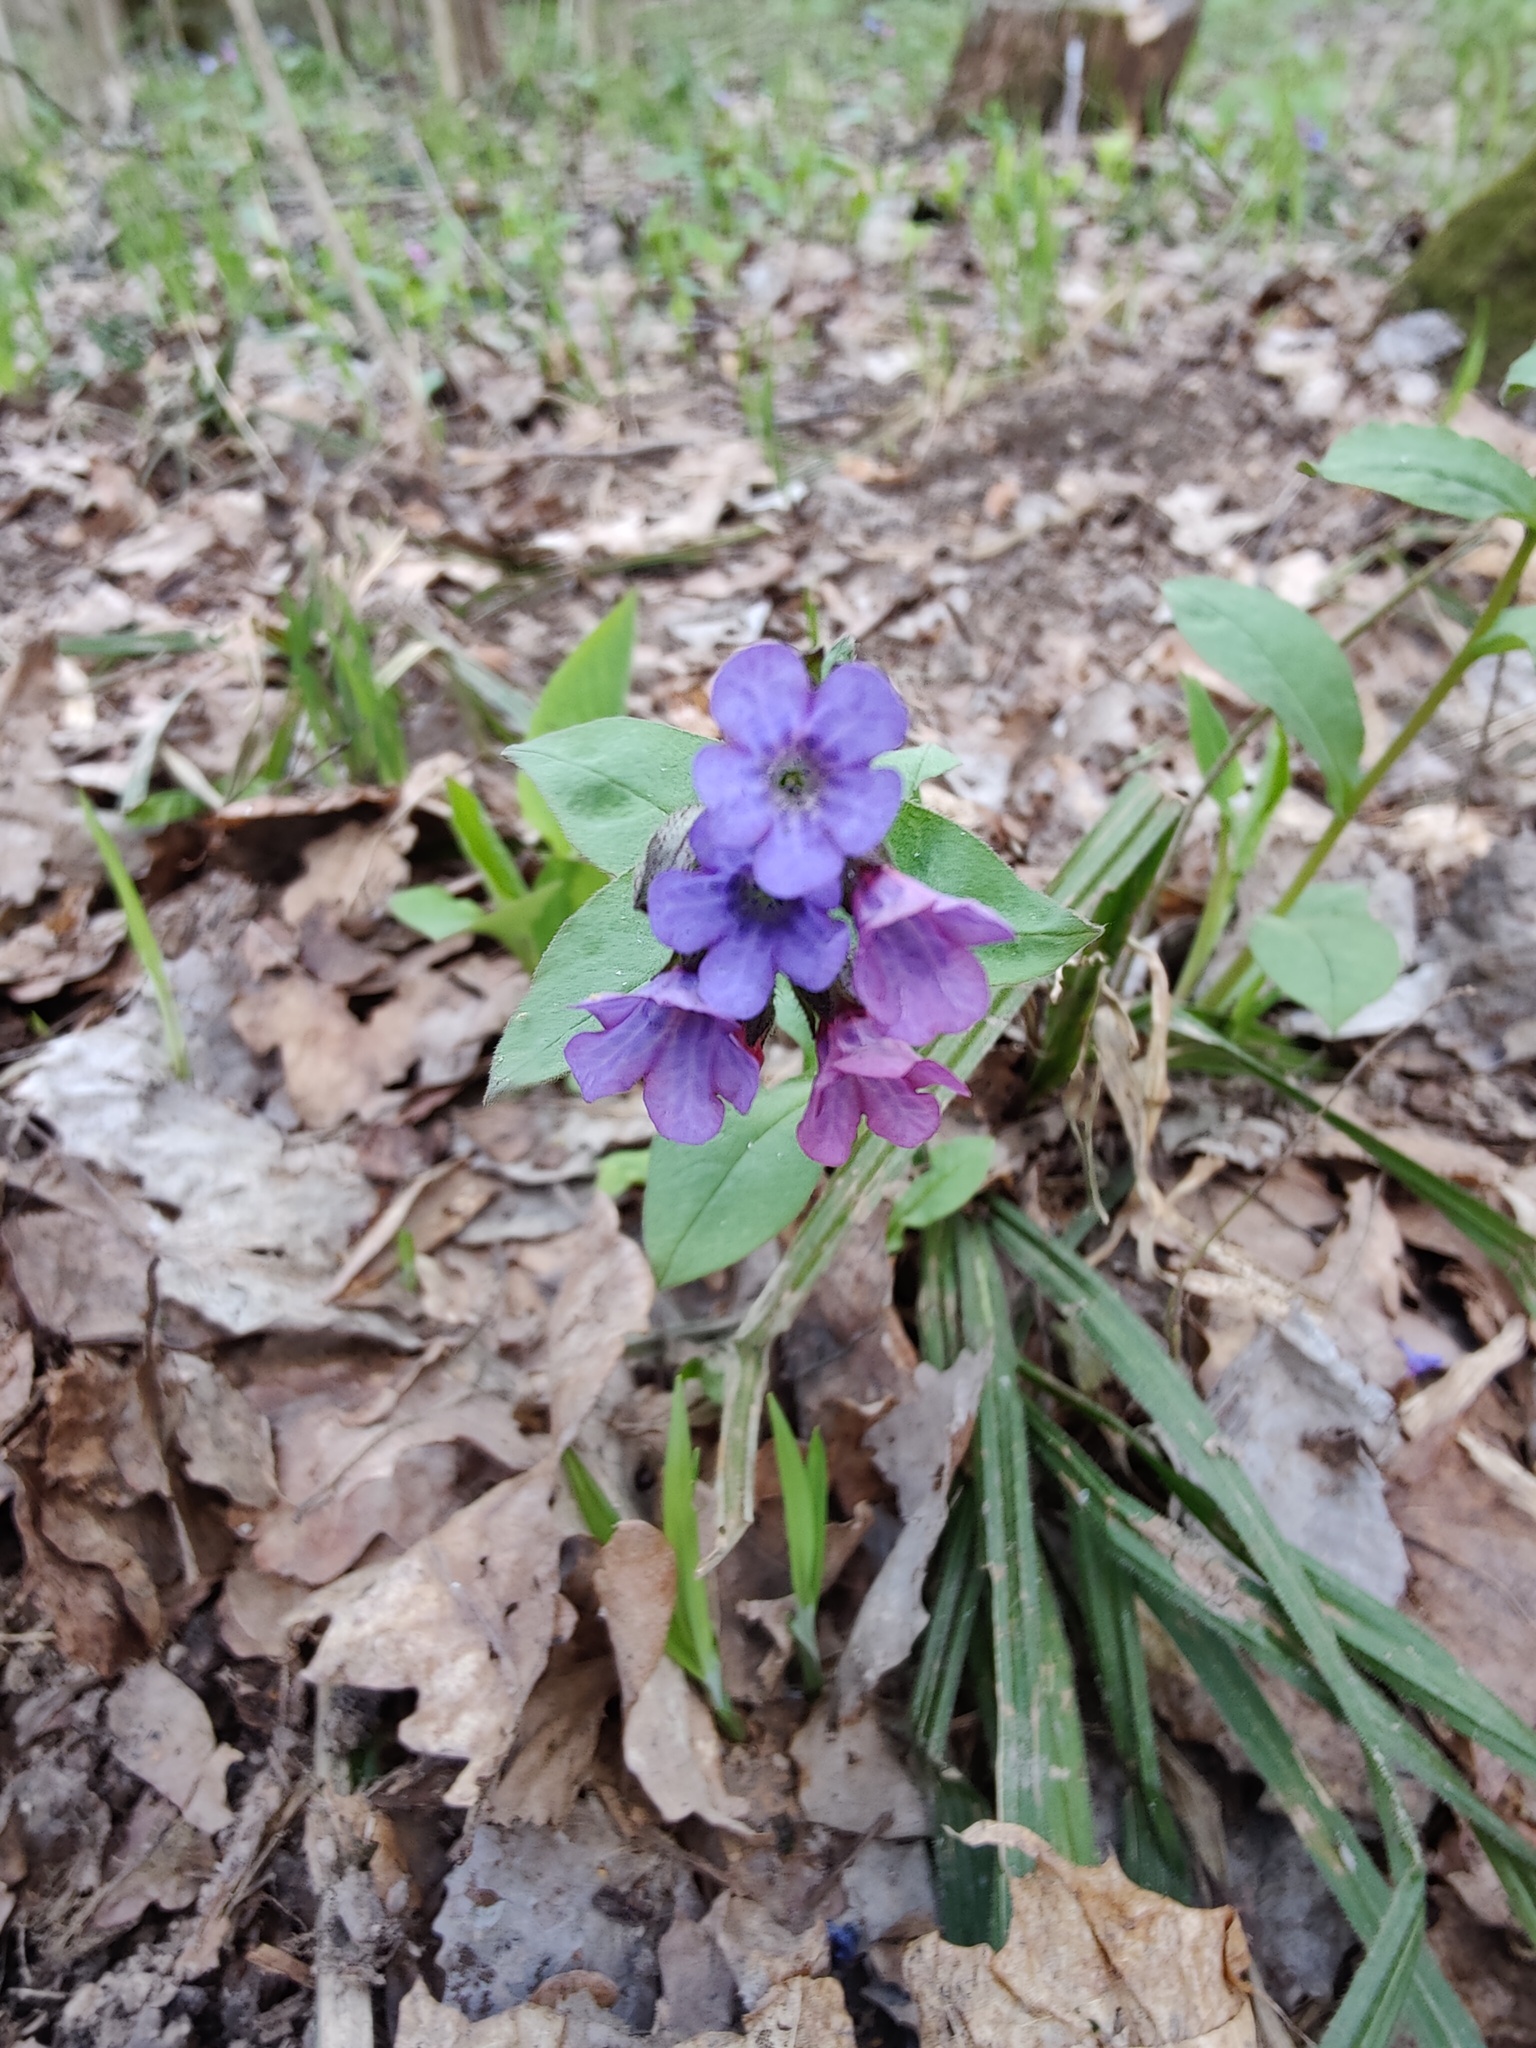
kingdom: Plantae
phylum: Tracheophyta
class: Magnoliopsida
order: Boraginales
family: Boraginaceae
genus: Pulmonaria
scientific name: Pulmonaria obscura
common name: Suffolk lungwort
